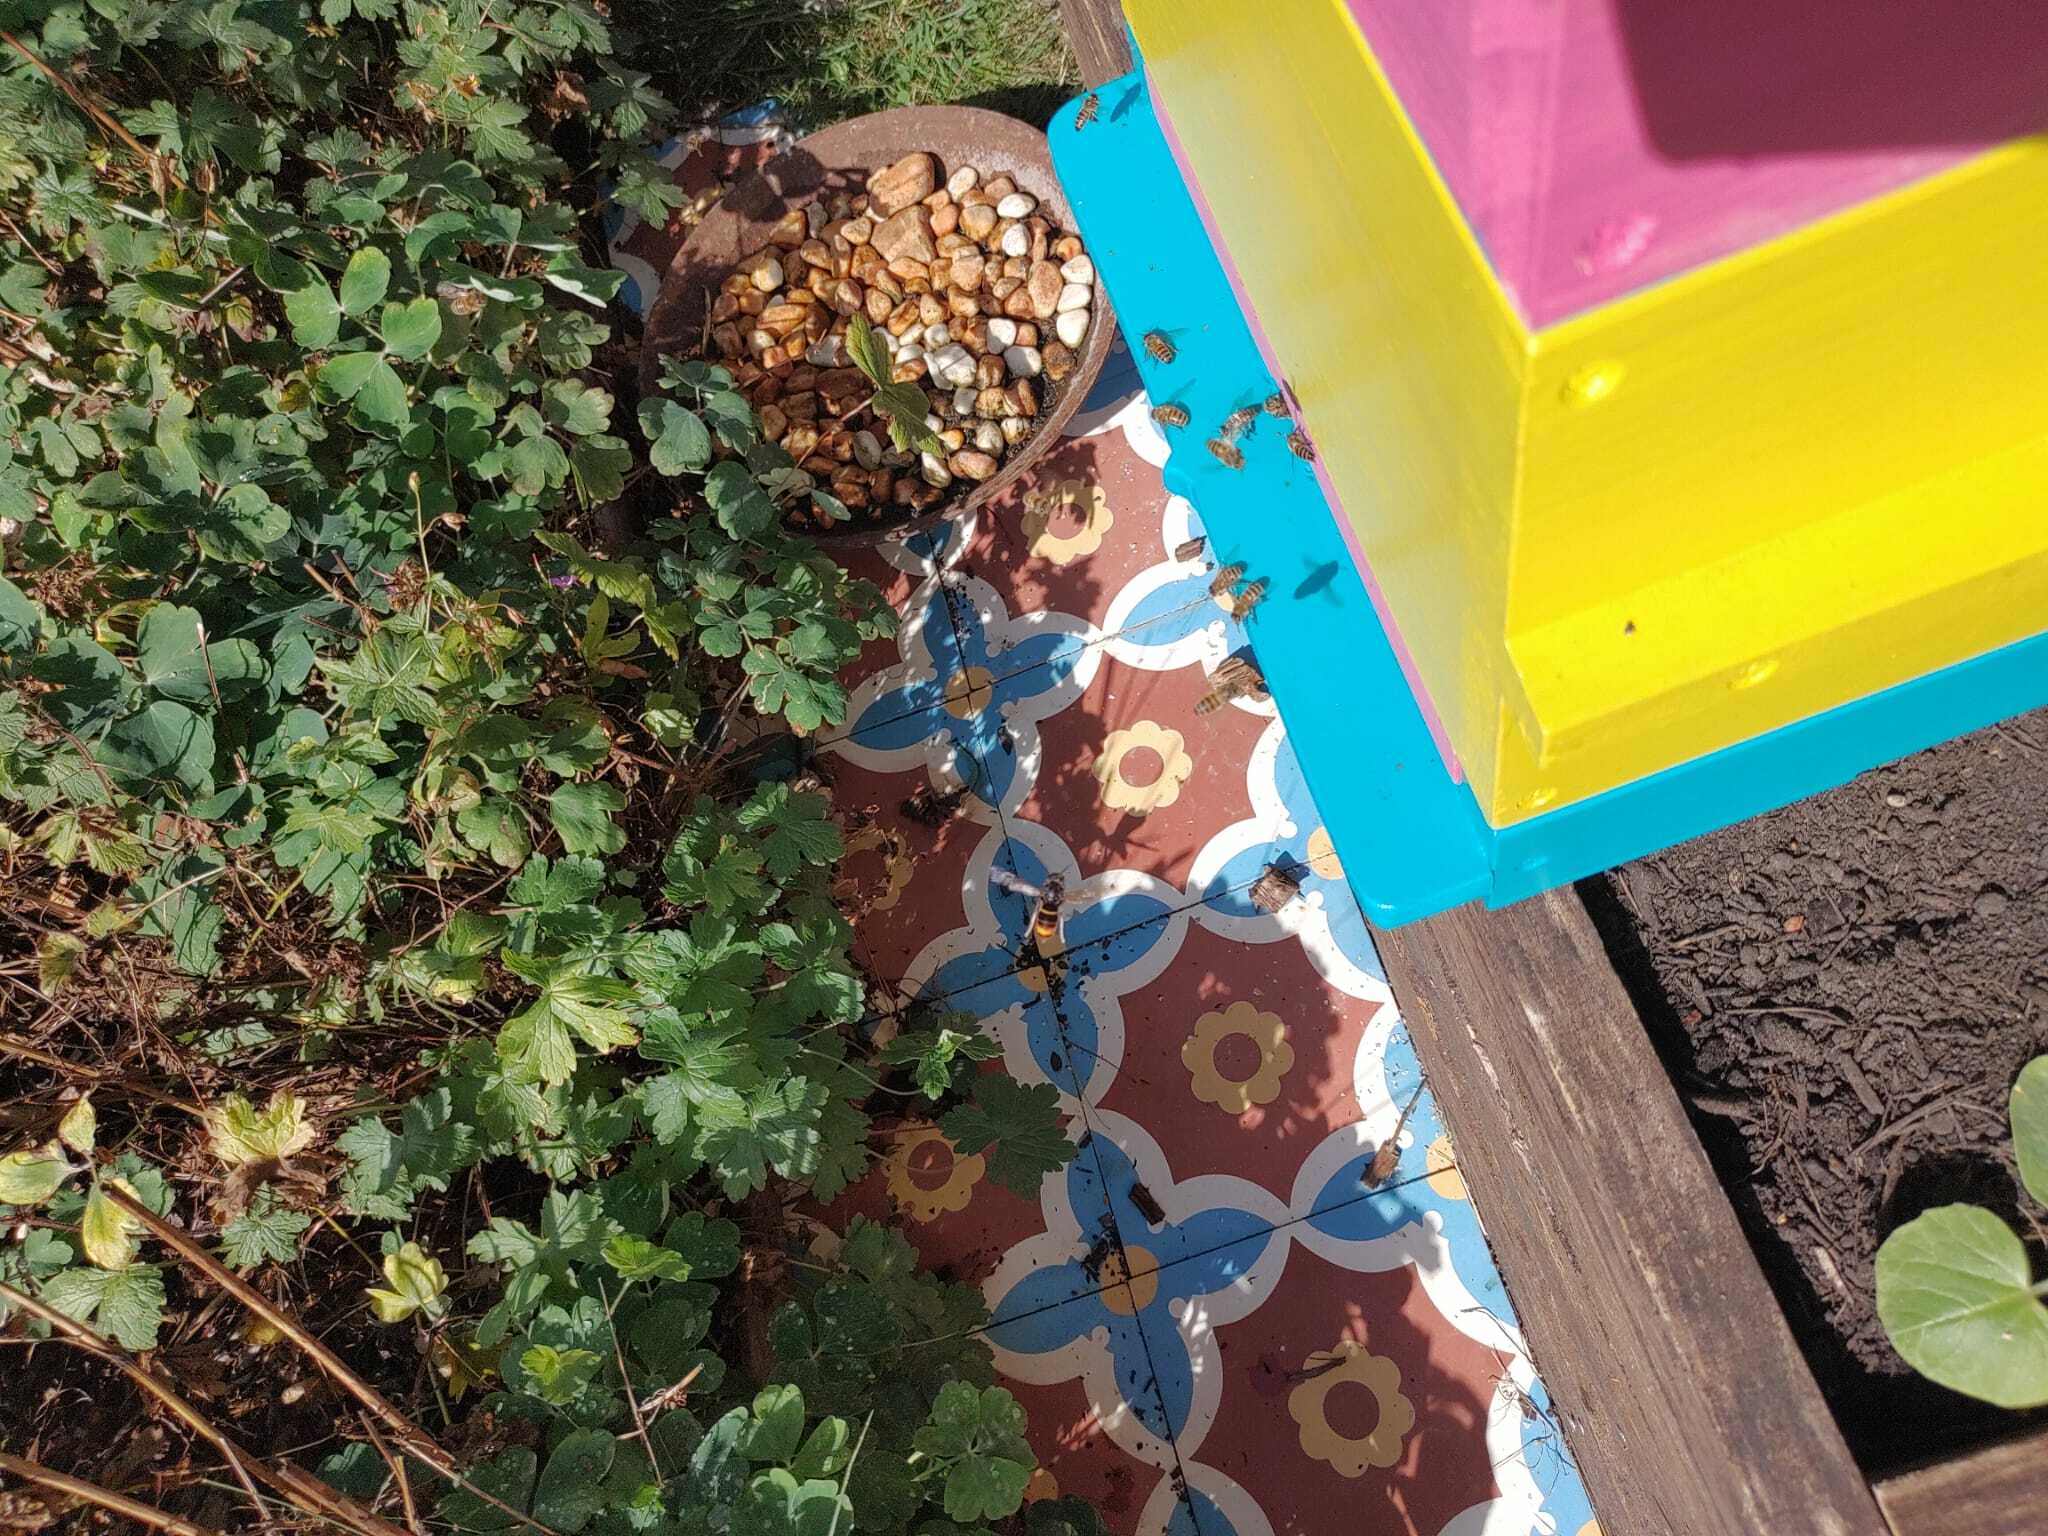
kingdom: Animalia
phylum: Arthropoda
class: Insecta
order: Hymenoptera
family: Vespidae
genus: Vespa
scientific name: Vespa velutina
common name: Asian hornet
